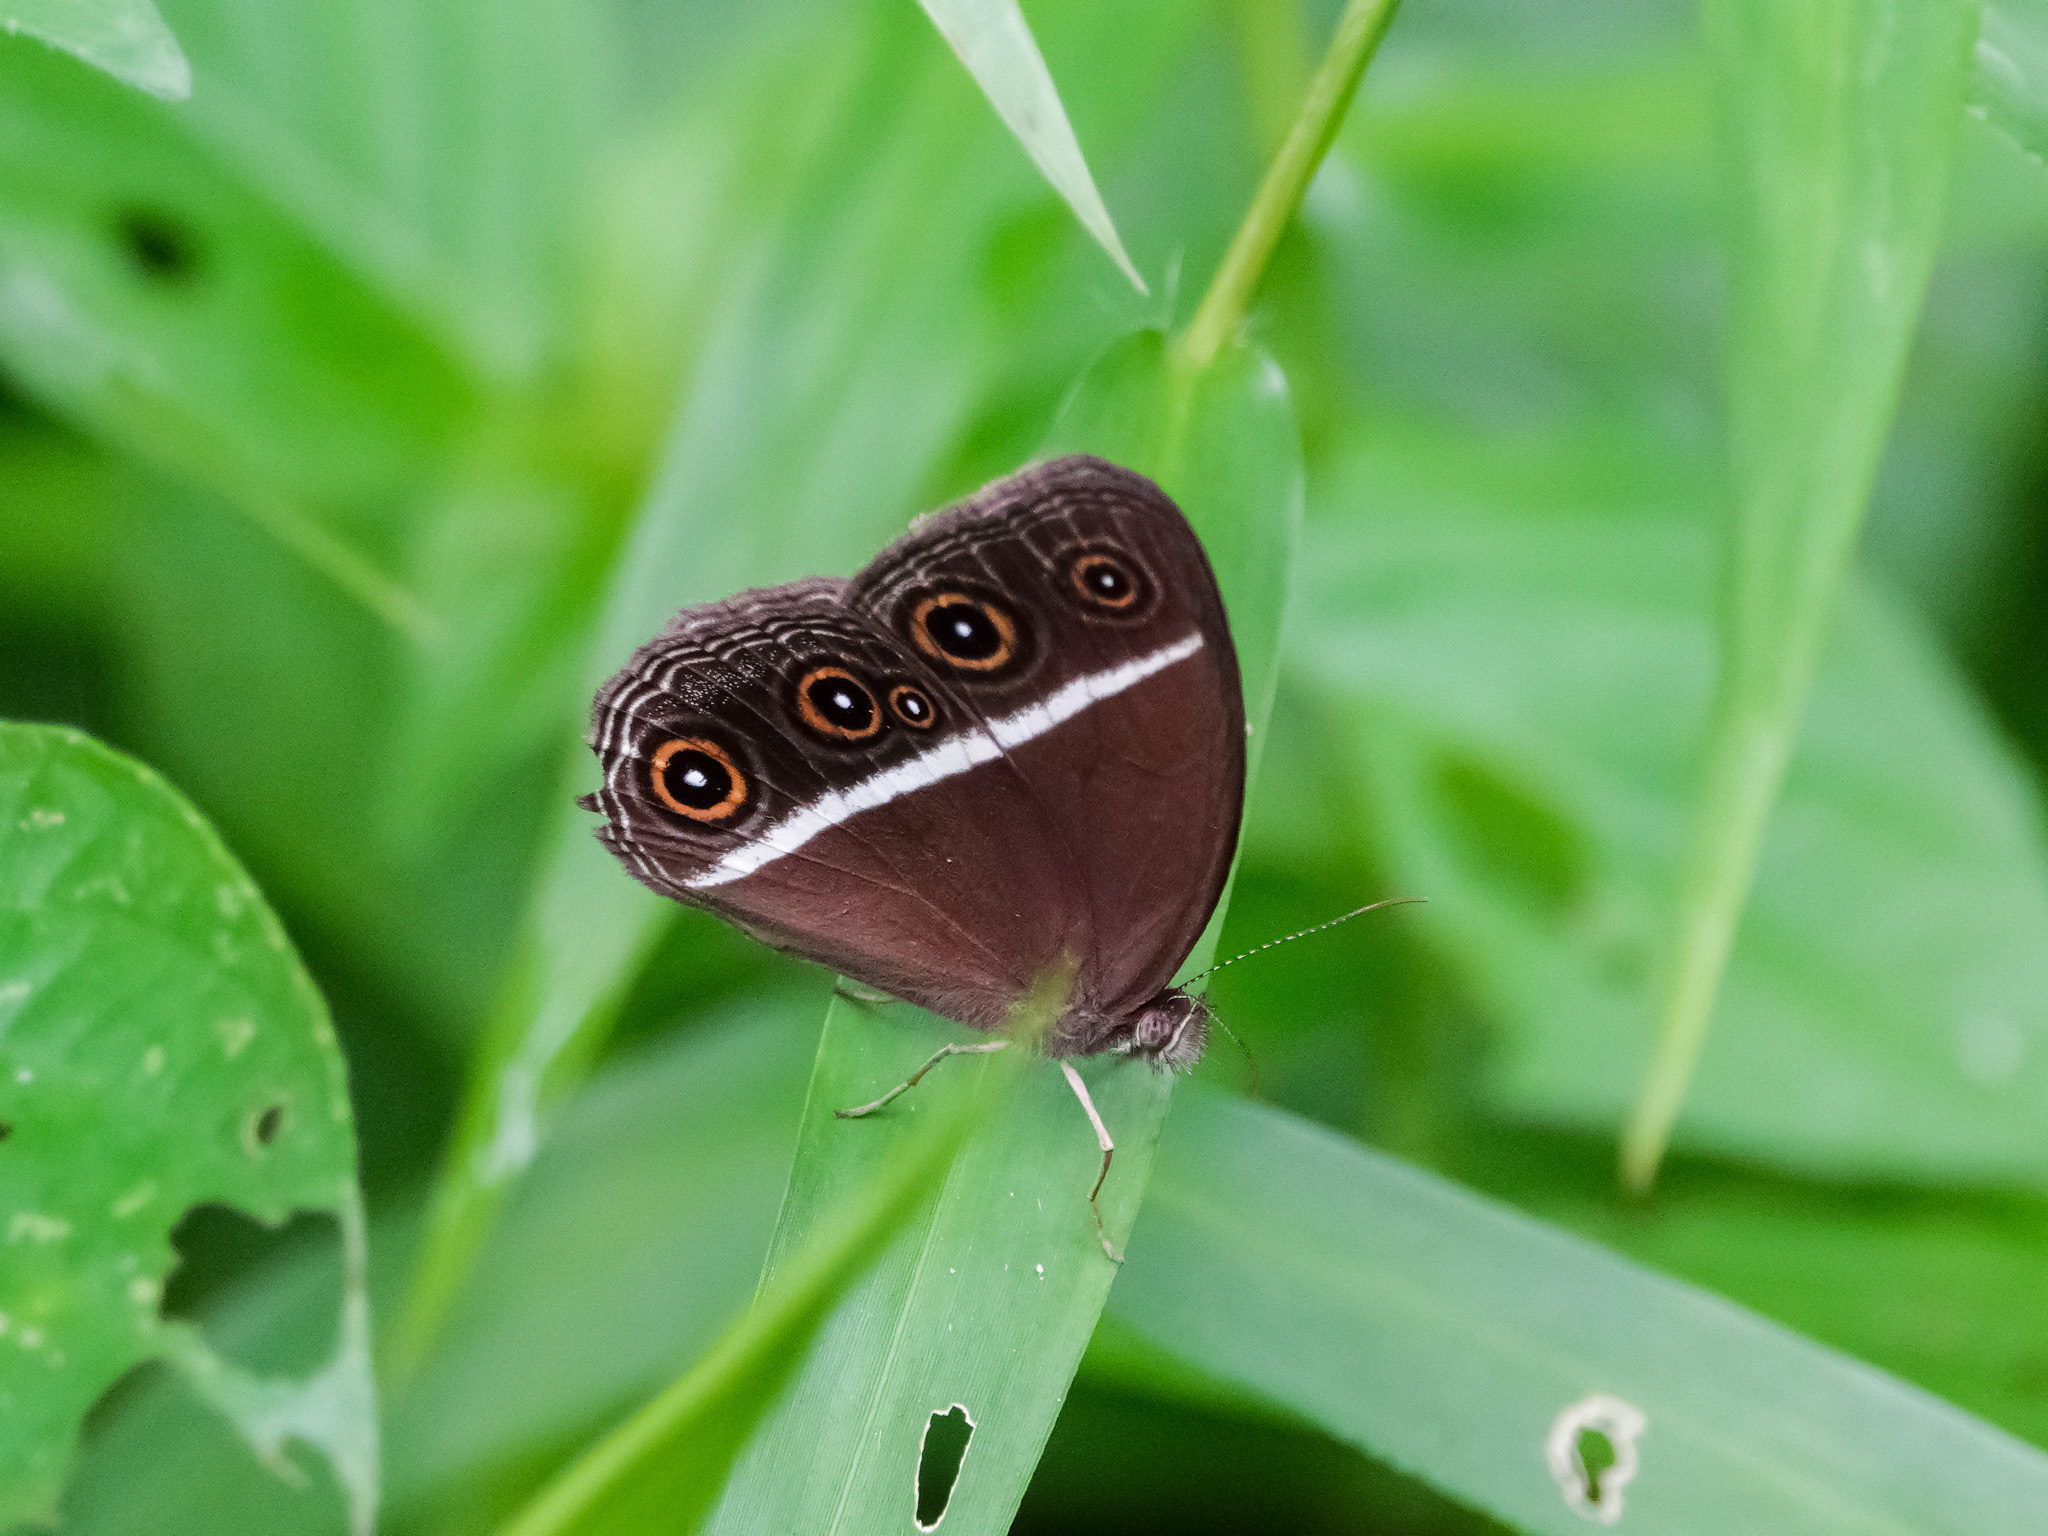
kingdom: Animalia
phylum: Arthropoda
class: Insecta
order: Lepidoptera
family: Nymphalidae
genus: Orsotriaena
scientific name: Orsotriaena medus
